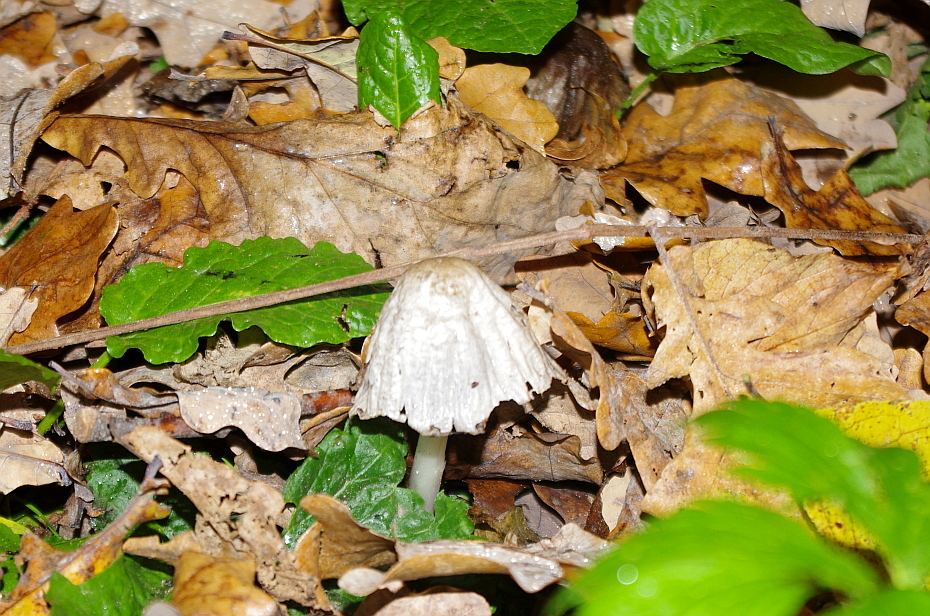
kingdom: Fungi
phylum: Basidiomycota
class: Agaricomycetes
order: Agaricales
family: Psathyrellaceae
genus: Coprinopsis
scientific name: Coprinopsis atramentaria
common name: Common ink-cap
